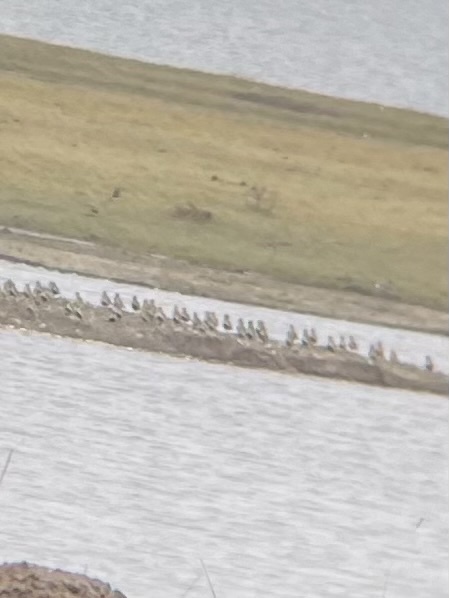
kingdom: Animalia
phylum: Chordata
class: Aves
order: Charadriiformes
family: Charadriidae
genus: Pluvialis
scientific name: Pluvialis apricaria
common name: European golden plover
